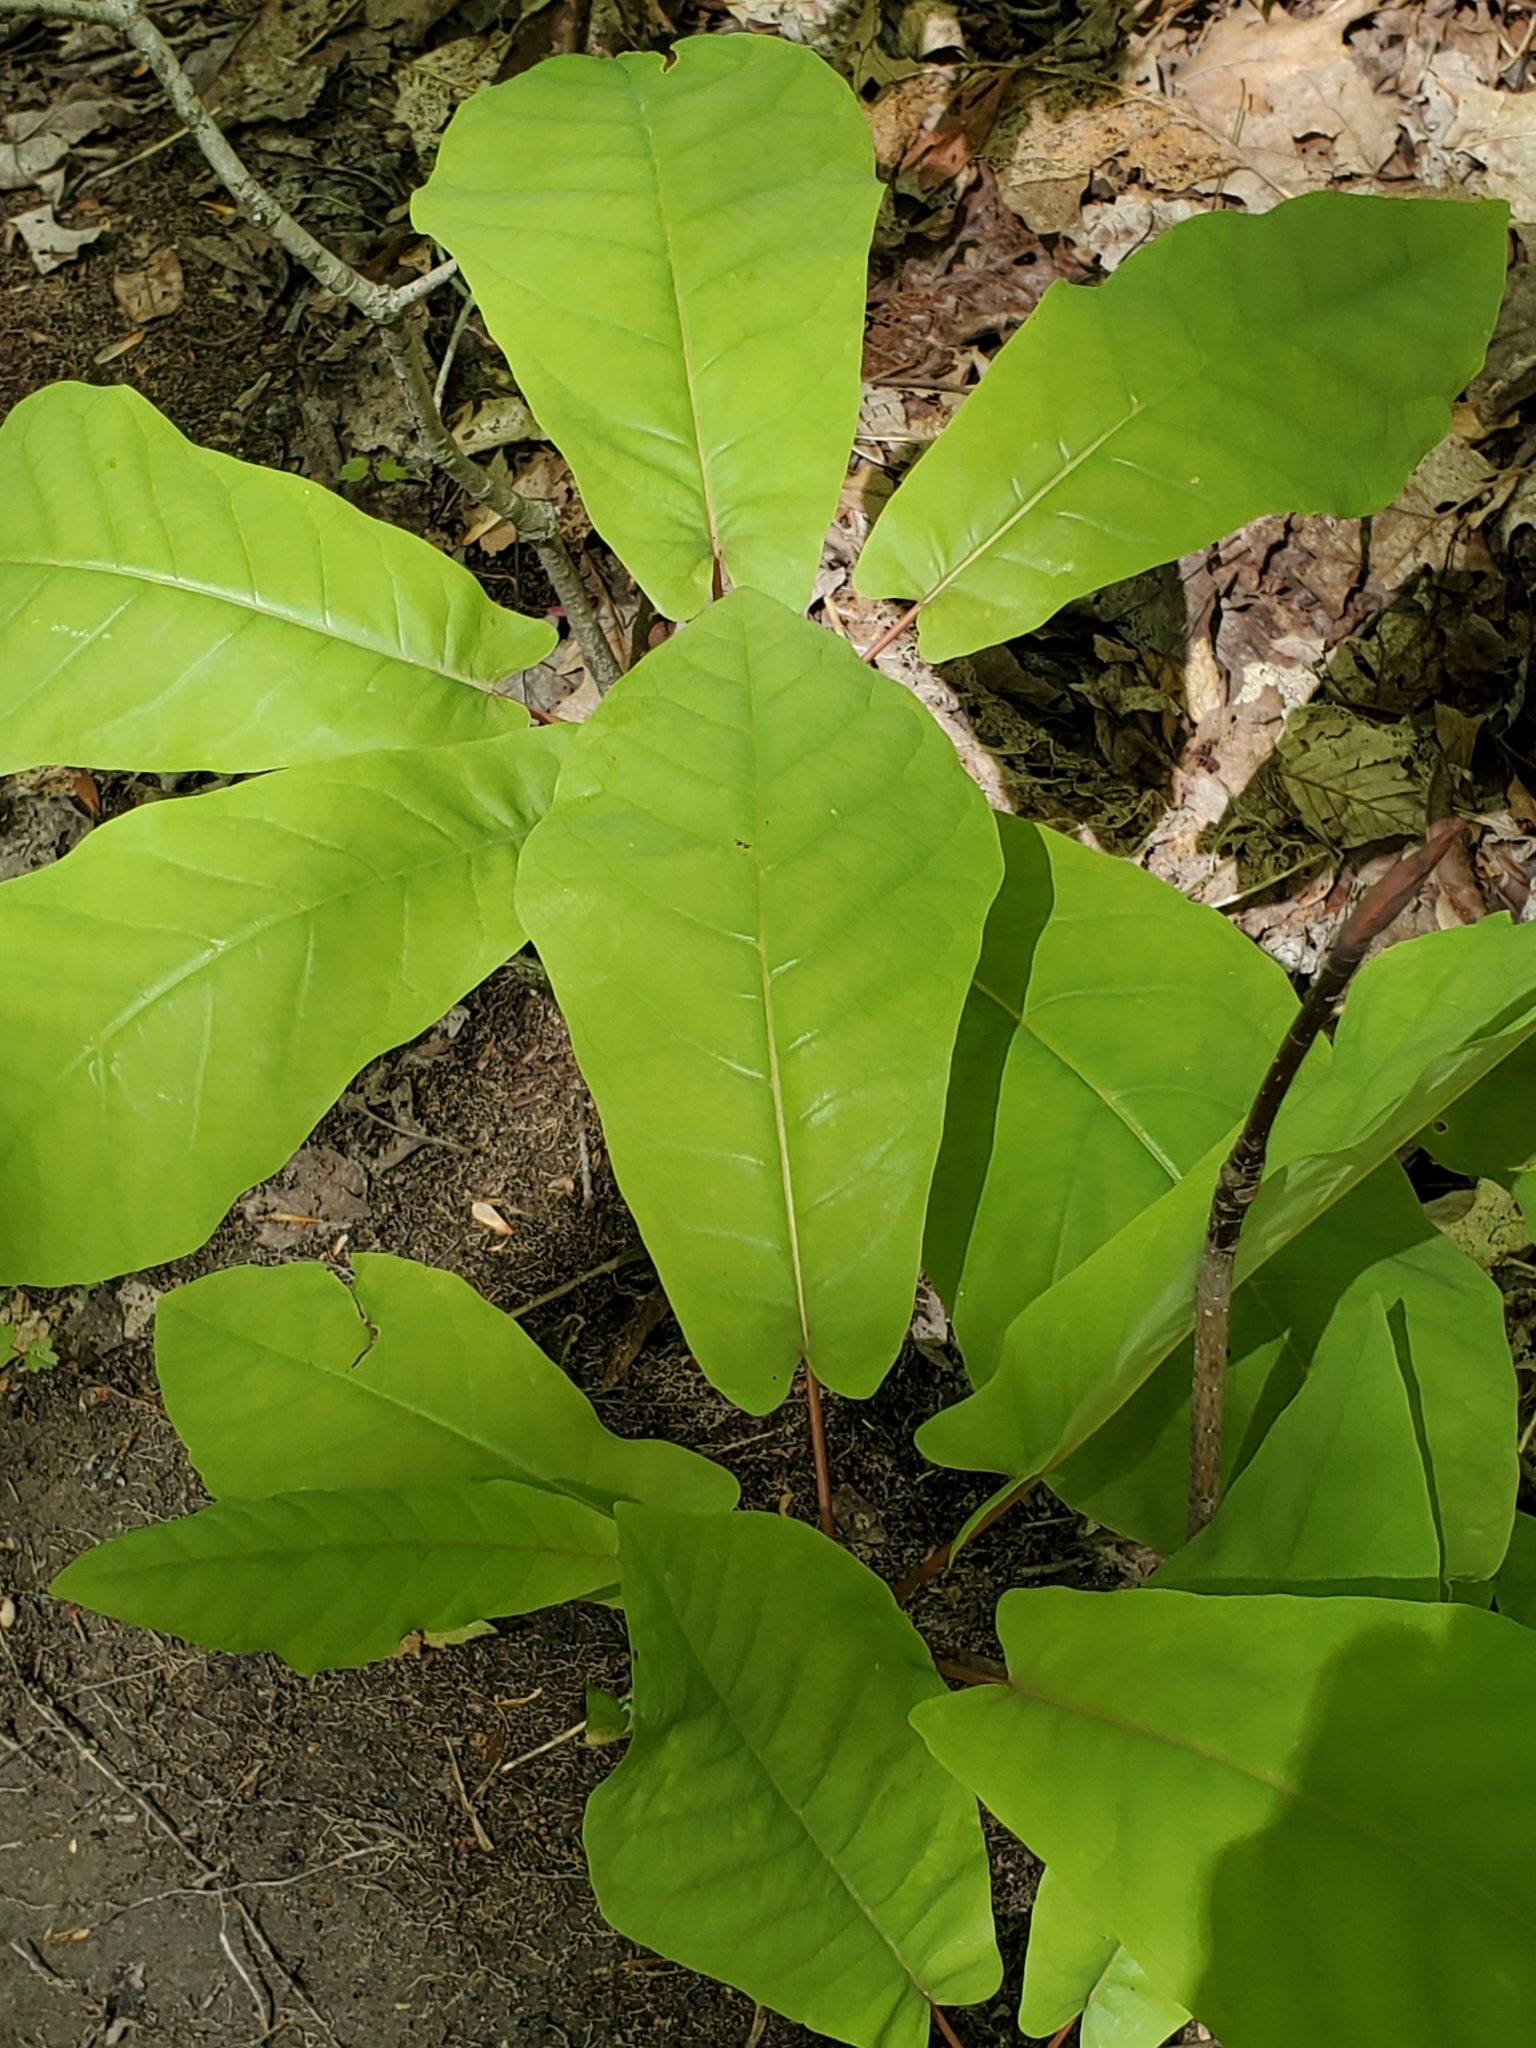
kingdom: Plantae
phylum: Tracheophyta
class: Magnoliopsida
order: Magnoliales
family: Magnoliaceae
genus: Magnolia
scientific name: Magnolia fraseri
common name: Fraser's magnolia
